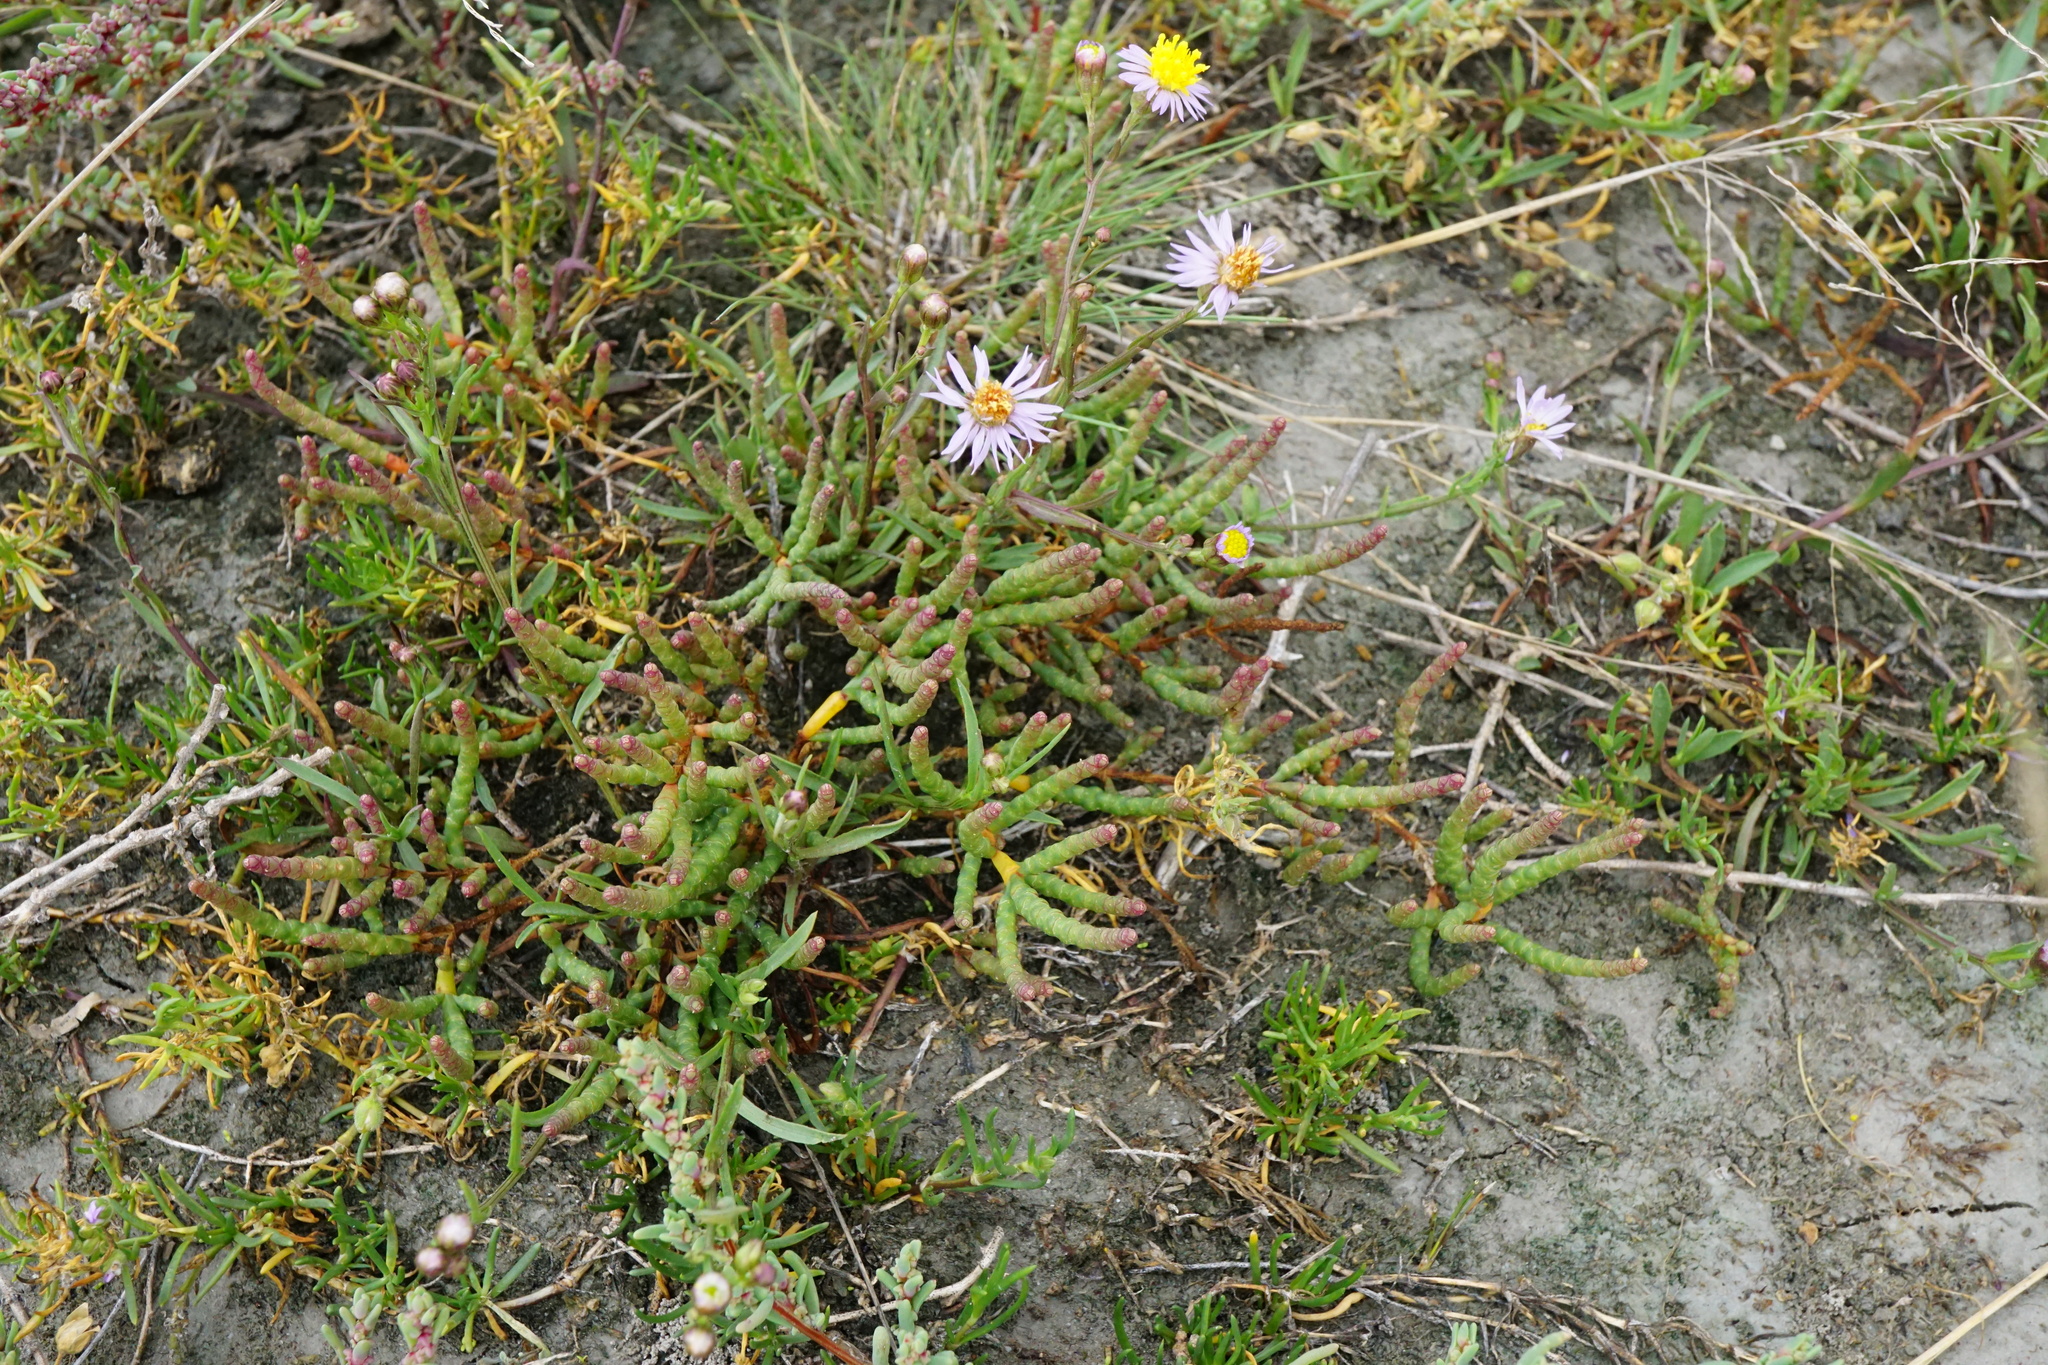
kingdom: Plantae
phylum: Tracheophyta
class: Magnoliopsida
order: Caryophyllales
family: Amaranthaceae
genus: Salicornia
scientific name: Salicornia perennans
